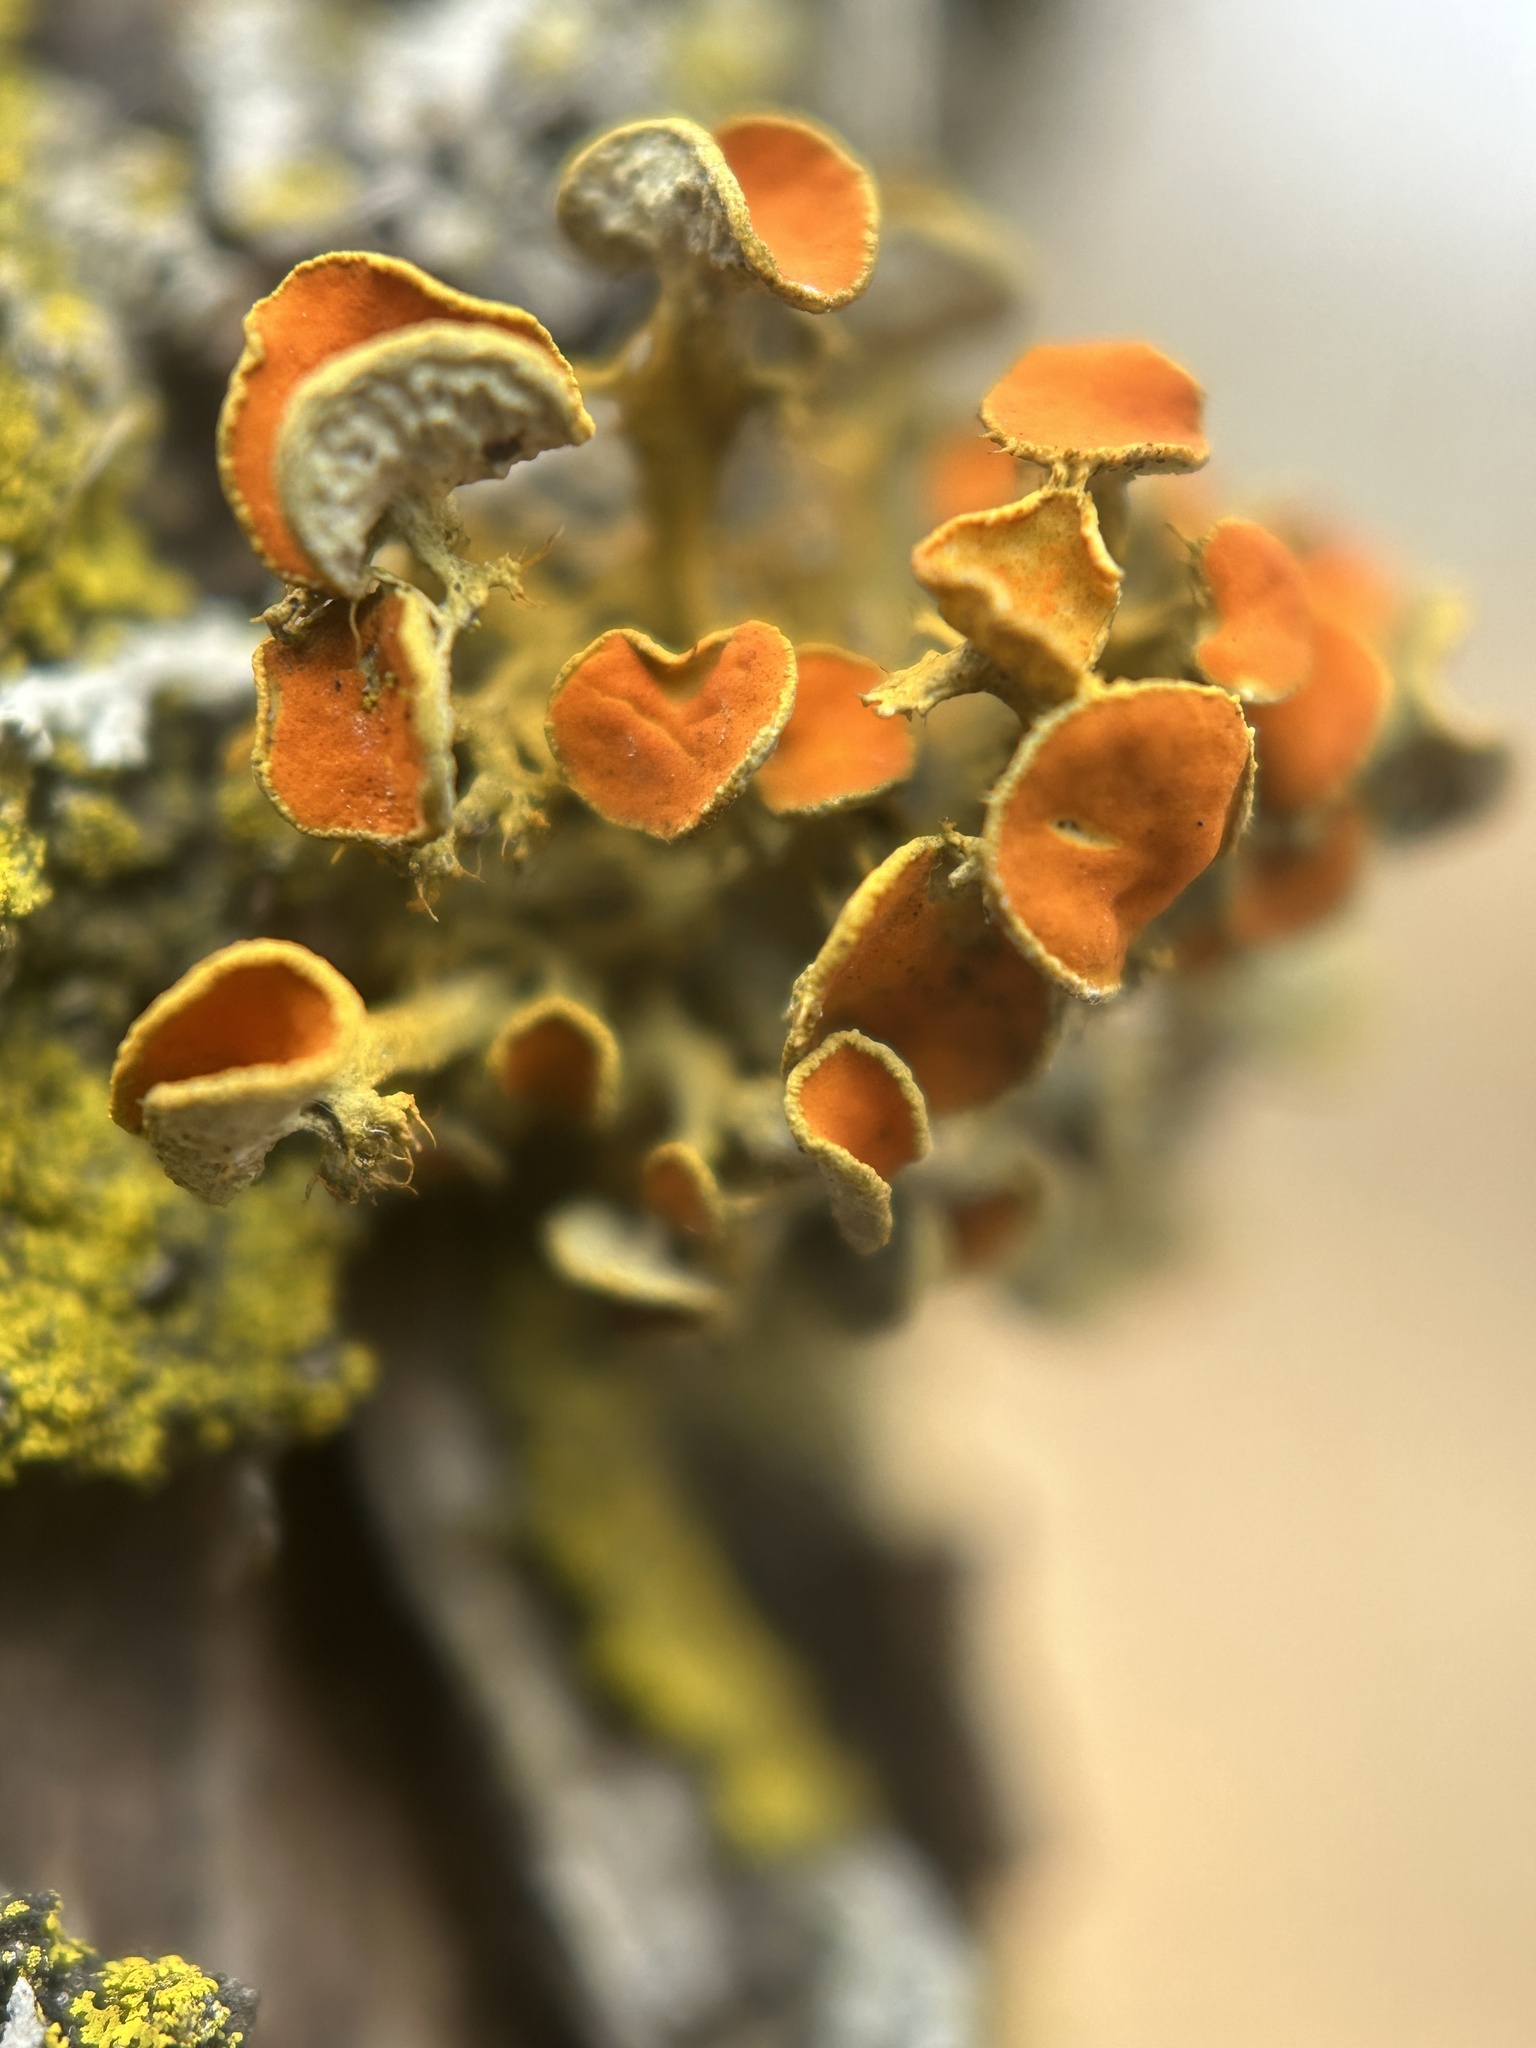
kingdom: Fungi
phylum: Ascomycota
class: Lecanoromycetes
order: Teloschistales
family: Teloschistaceae
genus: Niorma
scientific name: Niorma chrysophthalma
